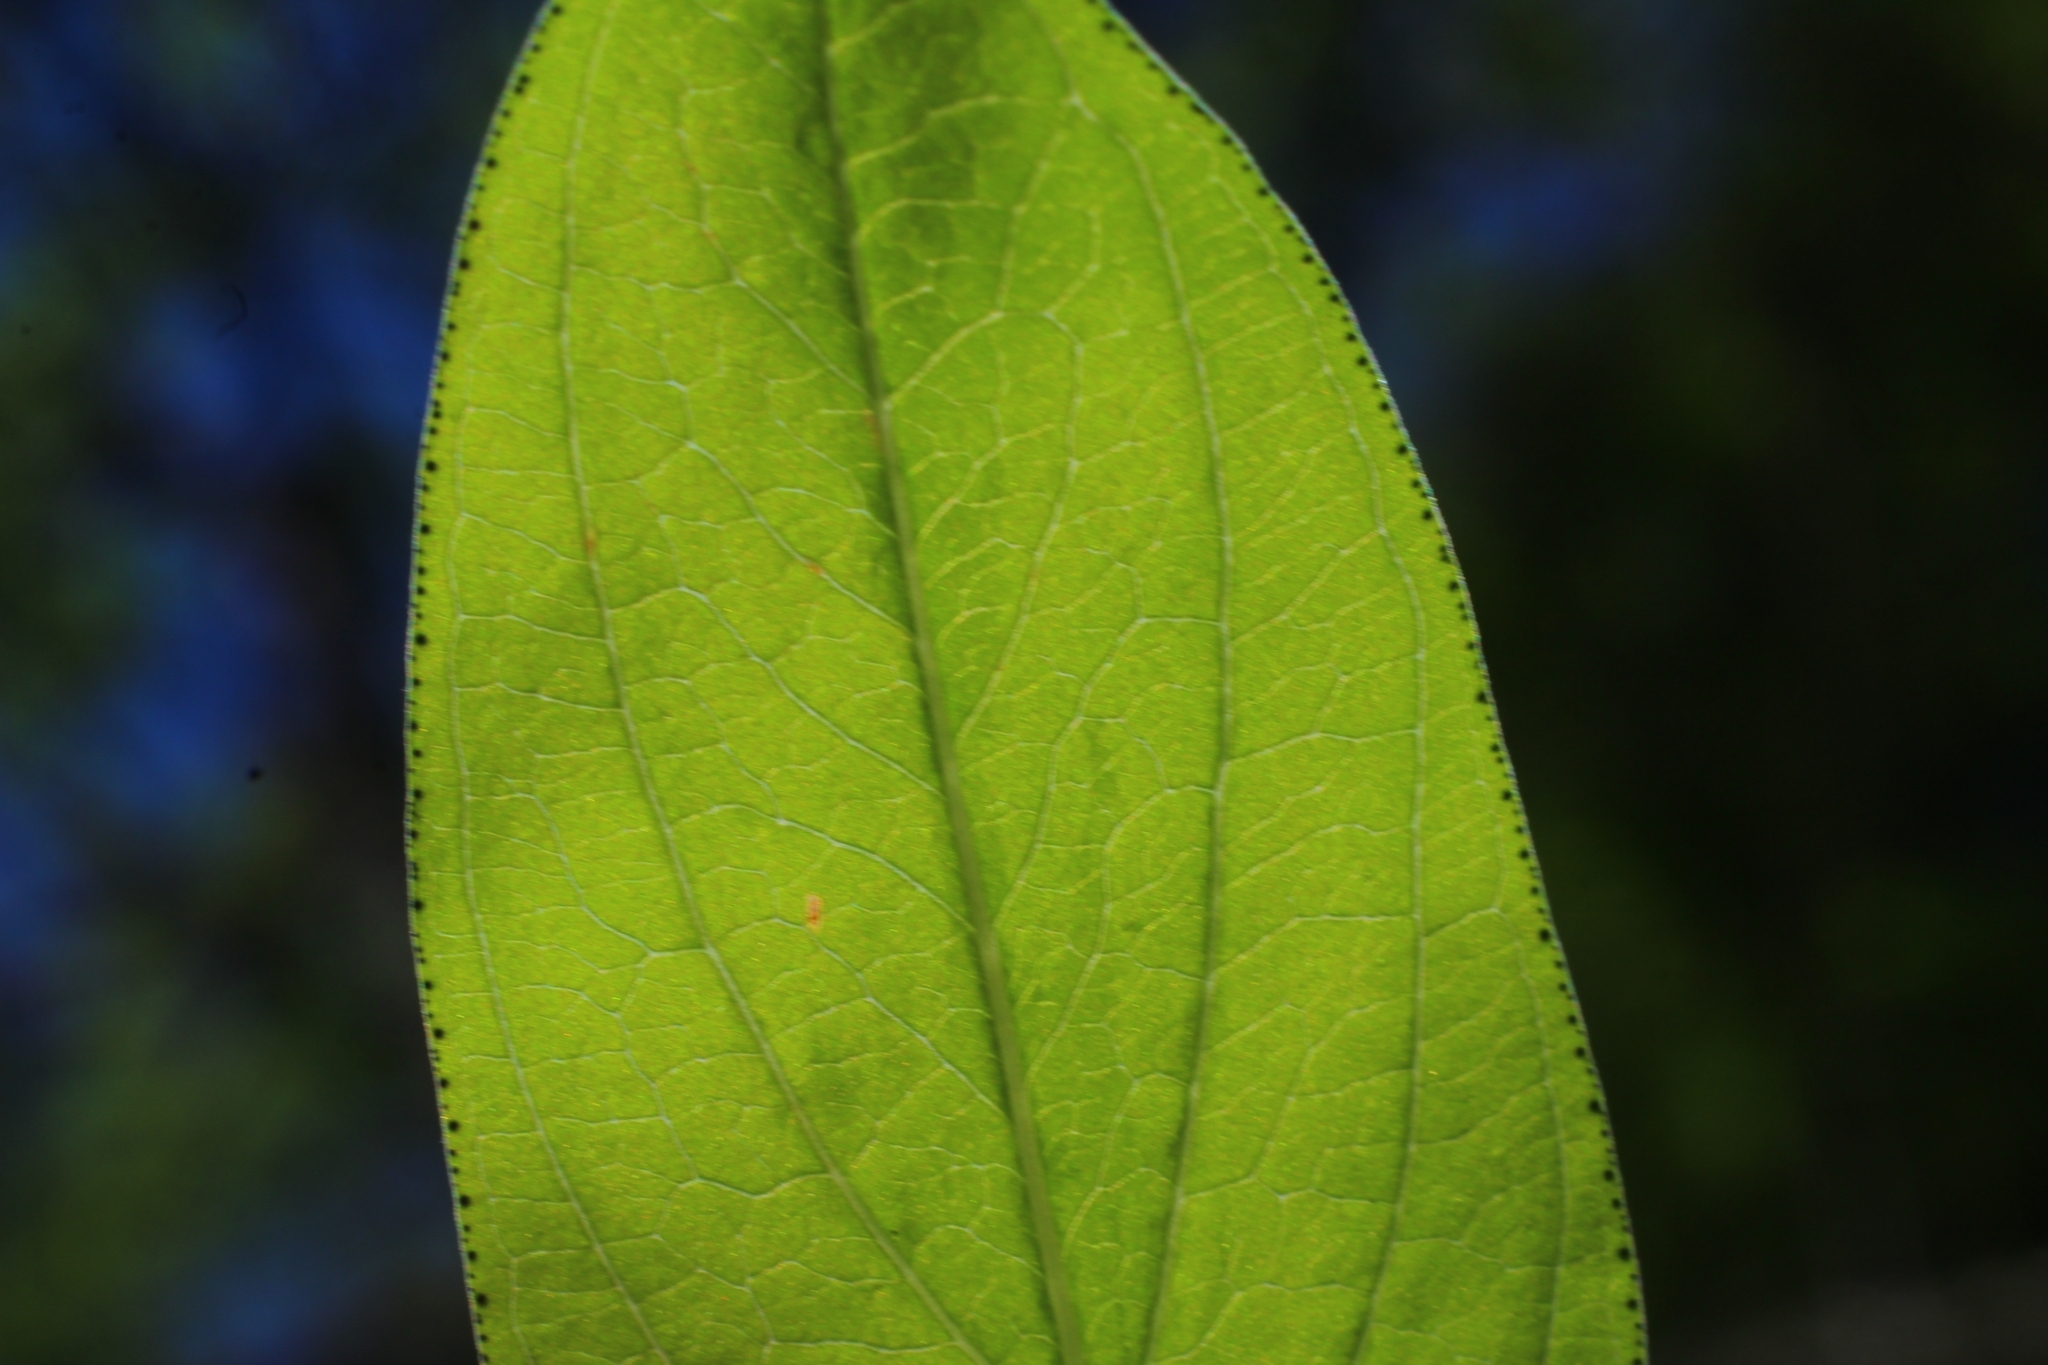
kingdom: Plantae
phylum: Tracheophyta
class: Magnoliopsida
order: Malpighiales
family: Hypericaceae
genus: Hypericum
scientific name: Hypericum montanum
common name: Pale st. john's-wort
